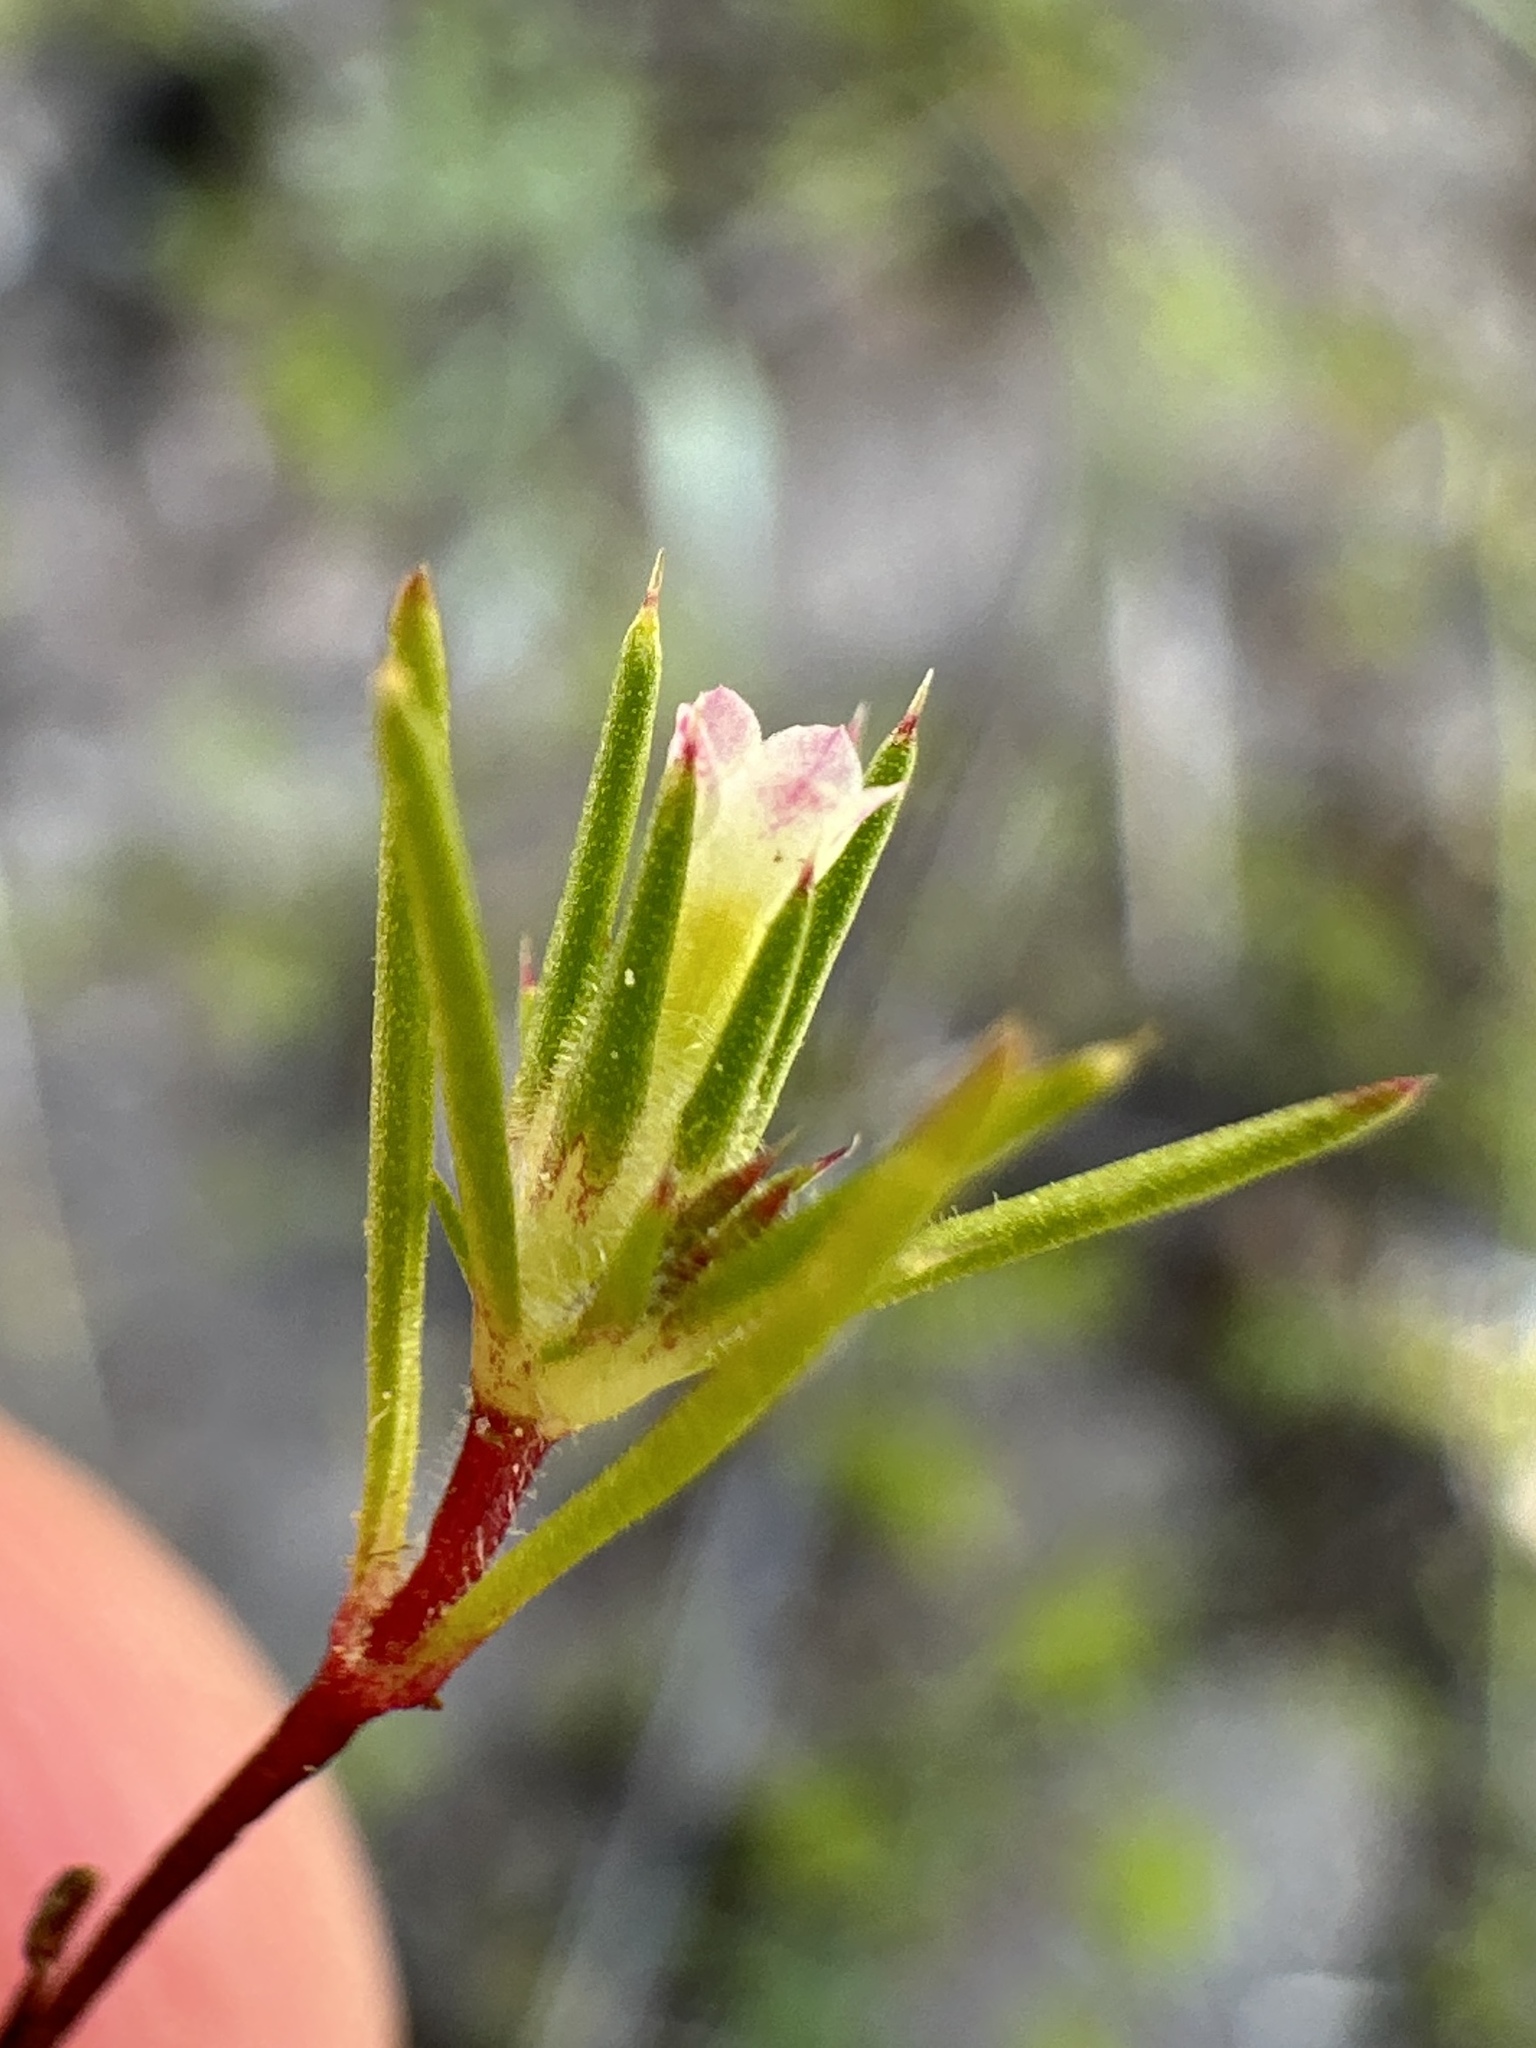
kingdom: Plantae
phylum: Tracheophyta
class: Magnoliopsida
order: Ericales
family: Polemoniaceae
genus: Navarretia
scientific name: Navarretia divaricata
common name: Mountain navarretia
